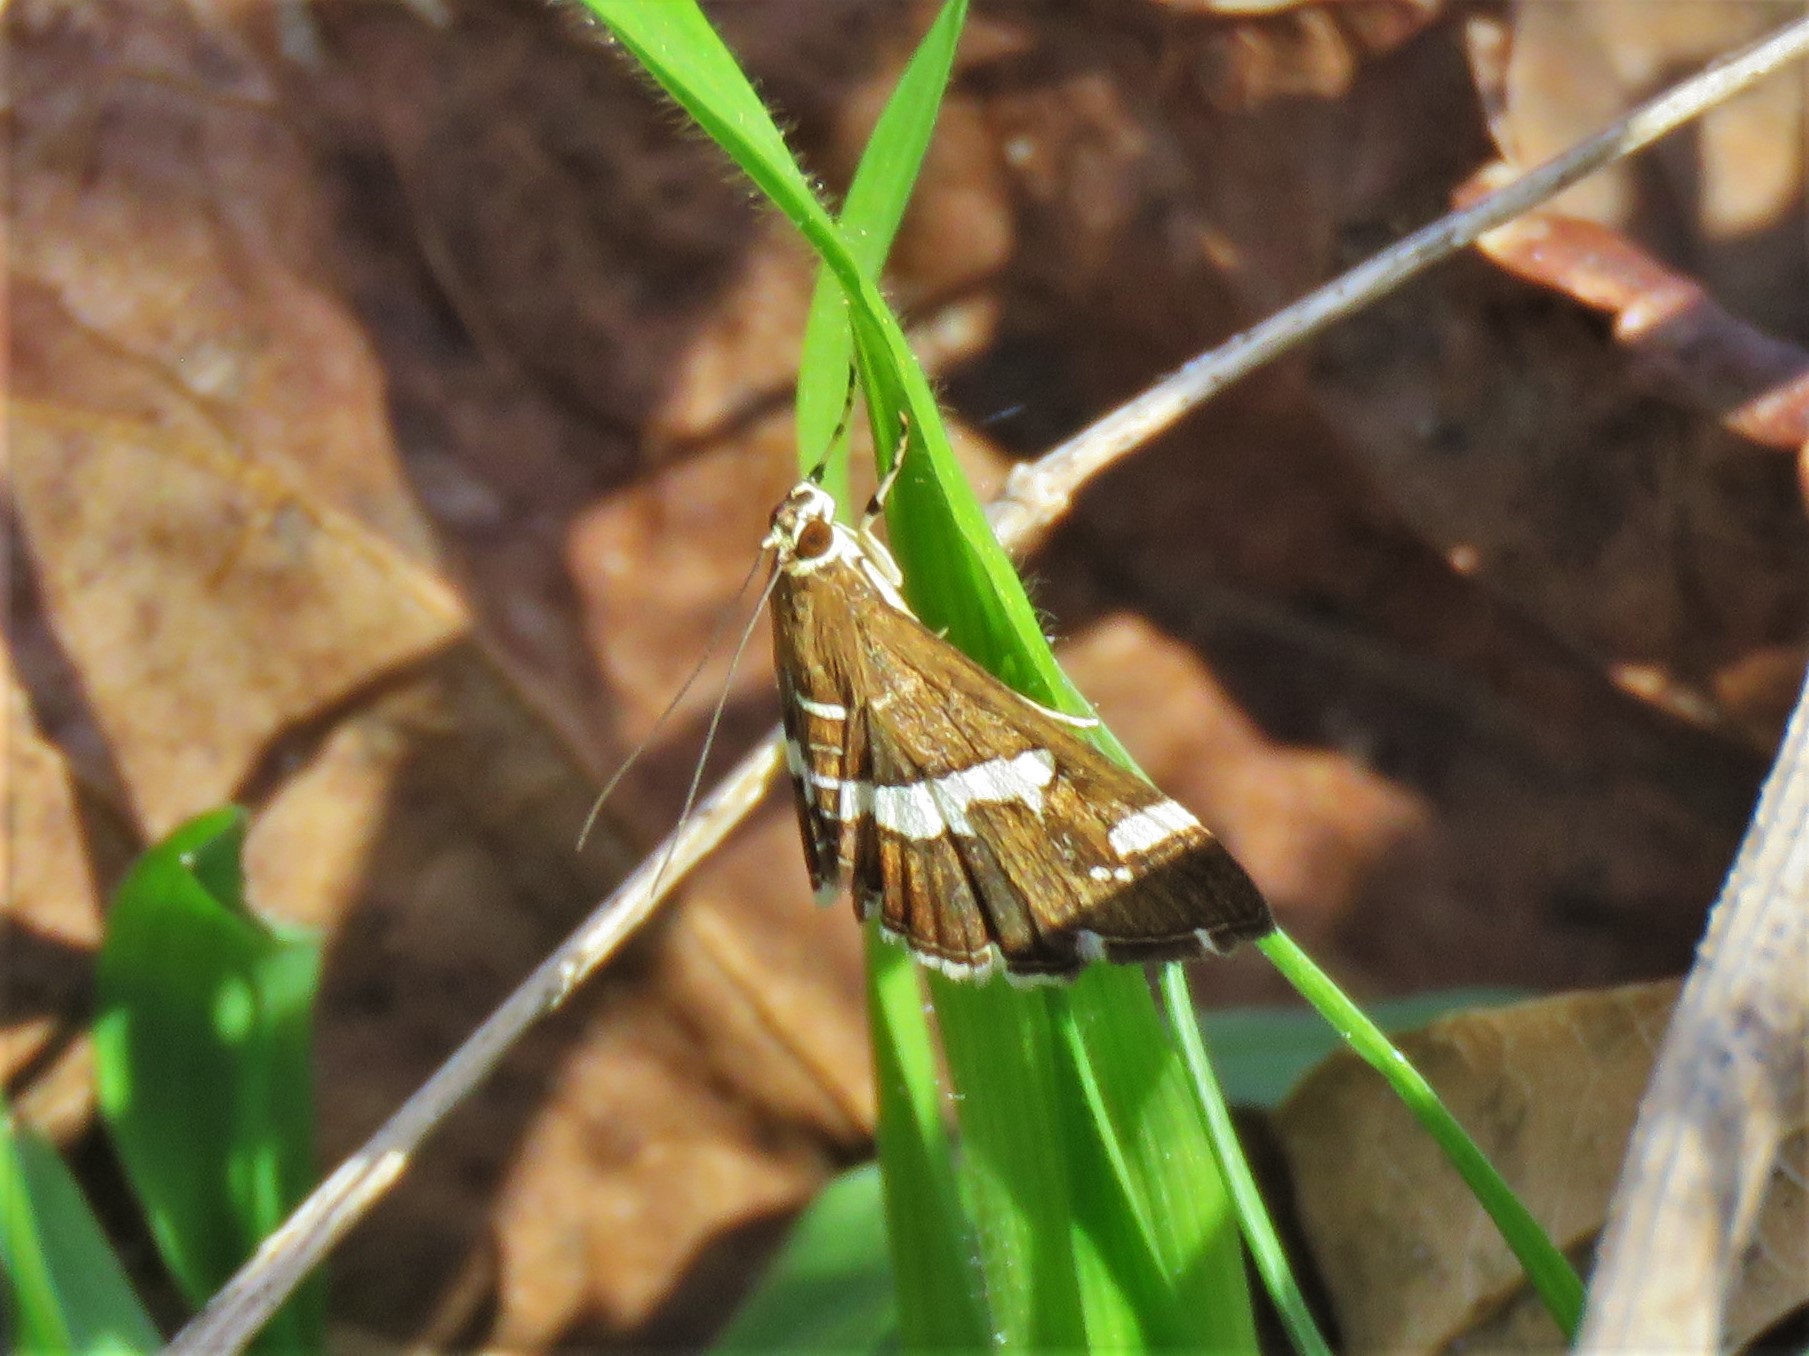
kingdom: Animalia
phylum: Arthropoda
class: Insecta
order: Lepidoptera
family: Crambidae
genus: Spoladea
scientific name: Spoladea recurvalis
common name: Beet webworm moth
